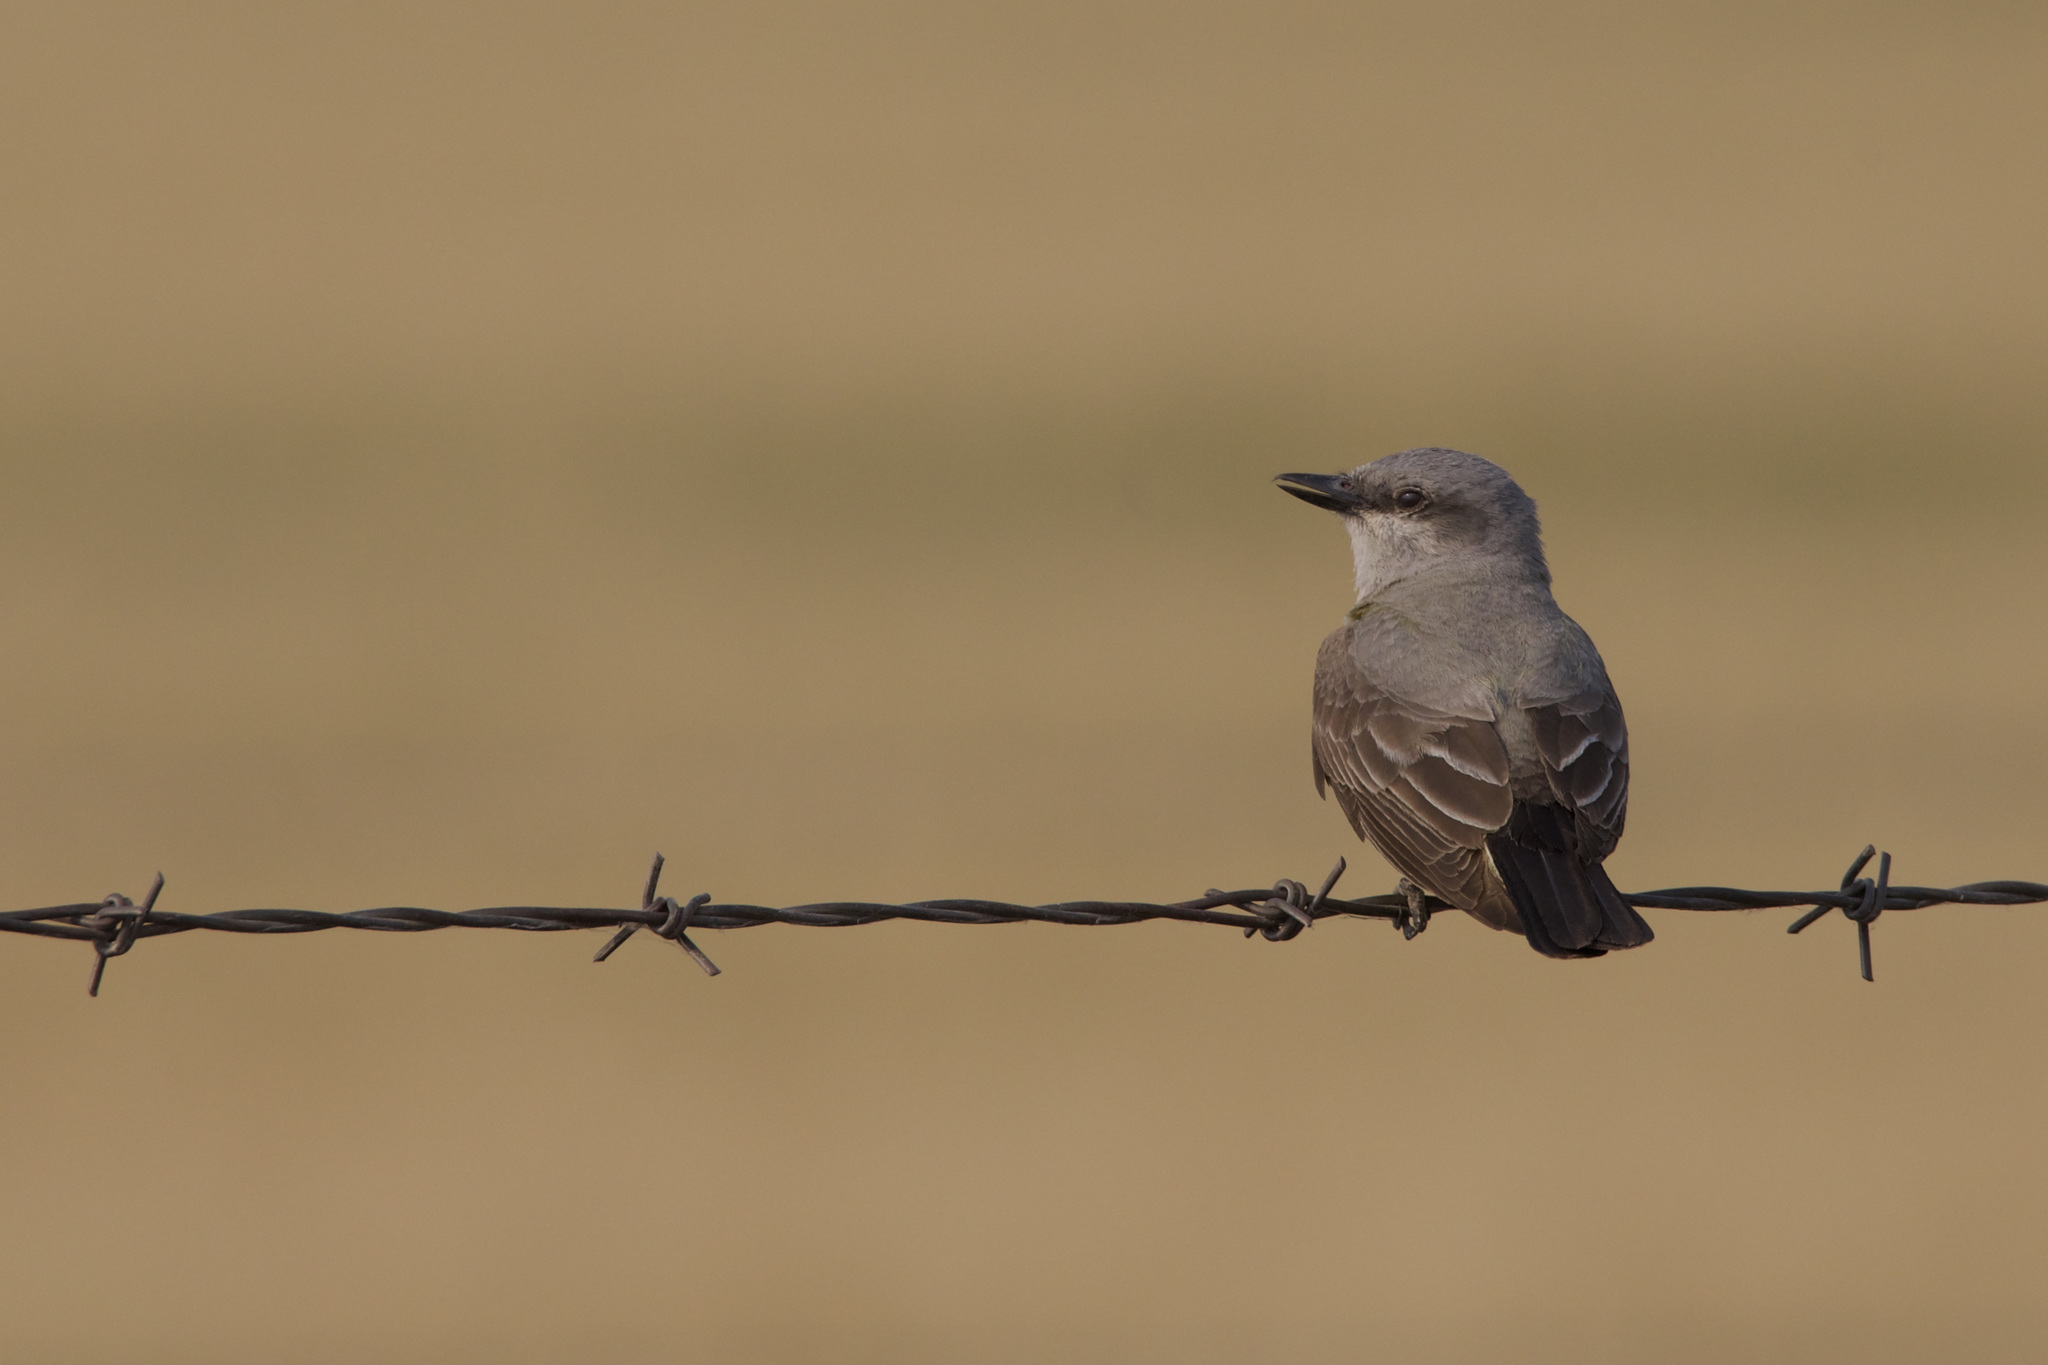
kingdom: Animalia
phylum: Chordata
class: Aves
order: Passeriformes
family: Tyrannidae
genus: Tyrannus
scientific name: Tyrannus verticalis
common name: Western kingbird
